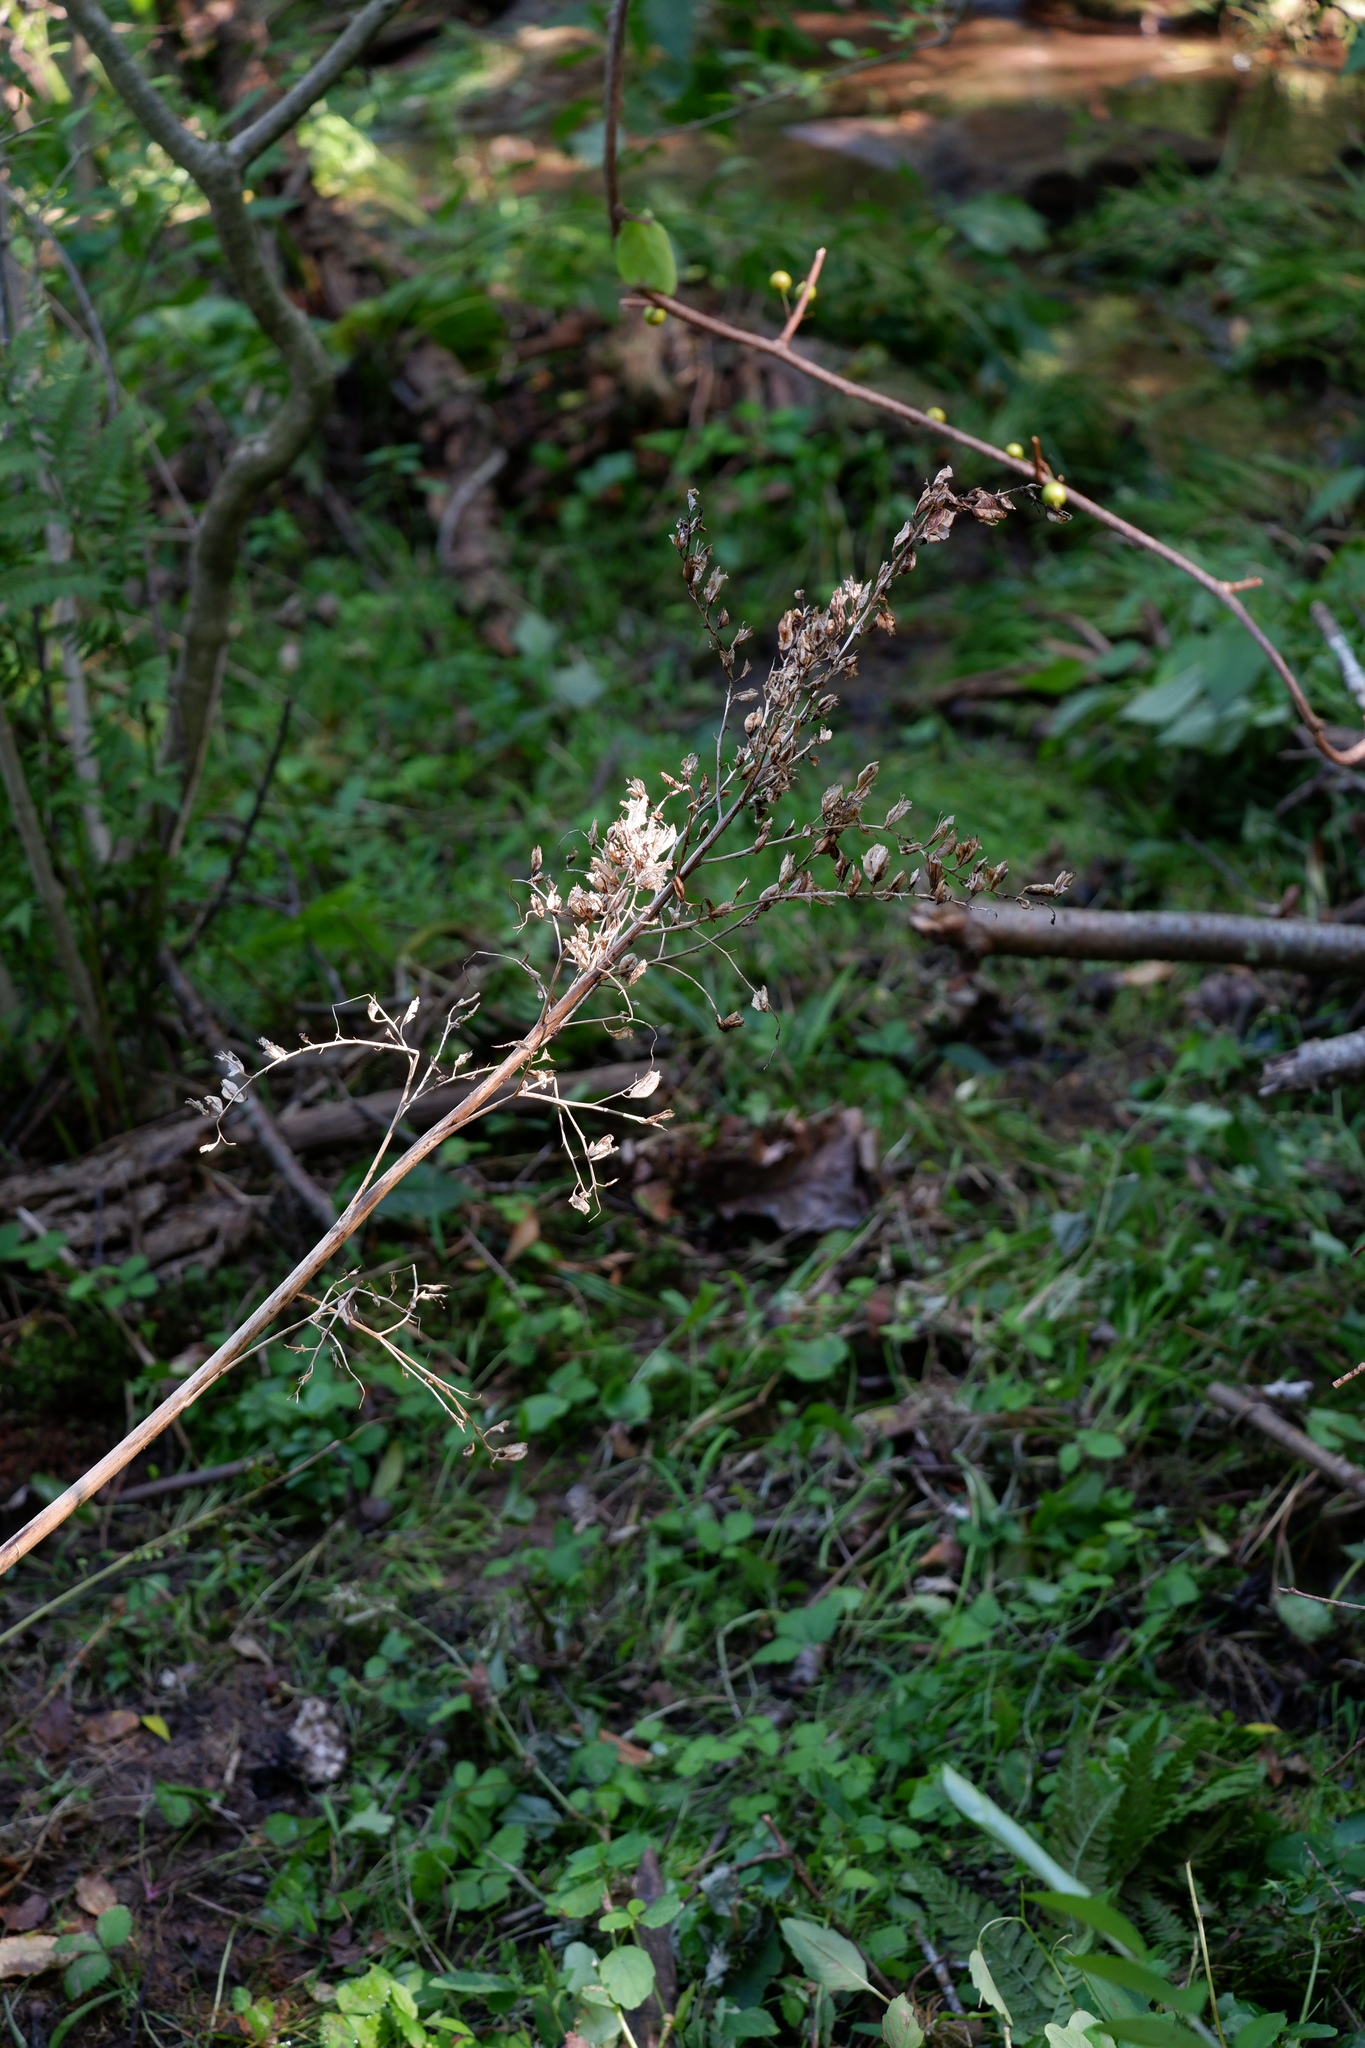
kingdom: Plantae
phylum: Tracheophyta
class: Liliopsida
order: Liliales
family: Melanthiaceae
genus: Veratrum
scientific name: Veratrum viride
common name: American false hellebore
